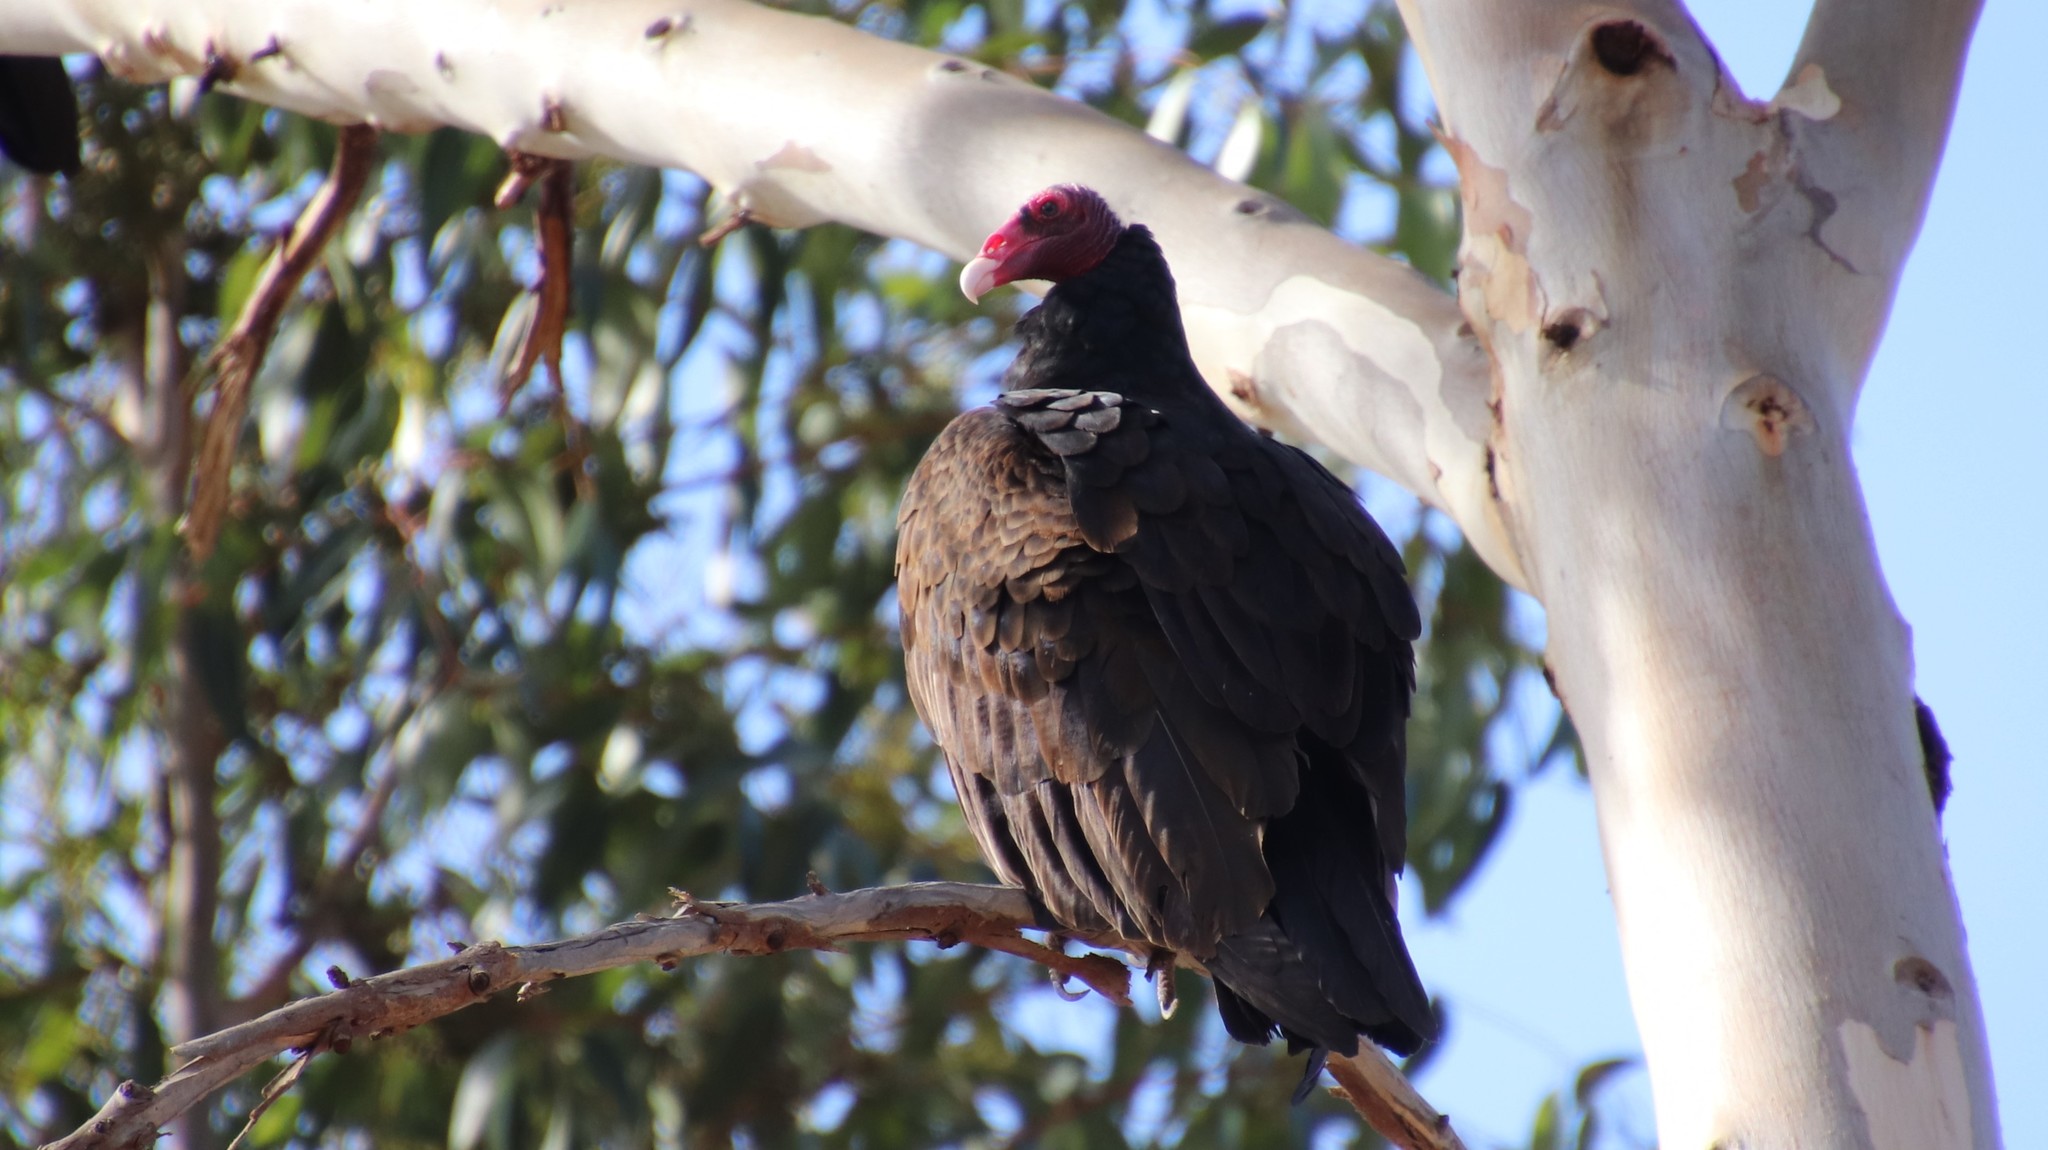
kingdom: Animalia
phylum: Chordata
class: Aves
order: Accipitriformes
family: Cathartidae
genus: Cathartes
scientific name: Cathartes aura
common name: Turkey vulture
